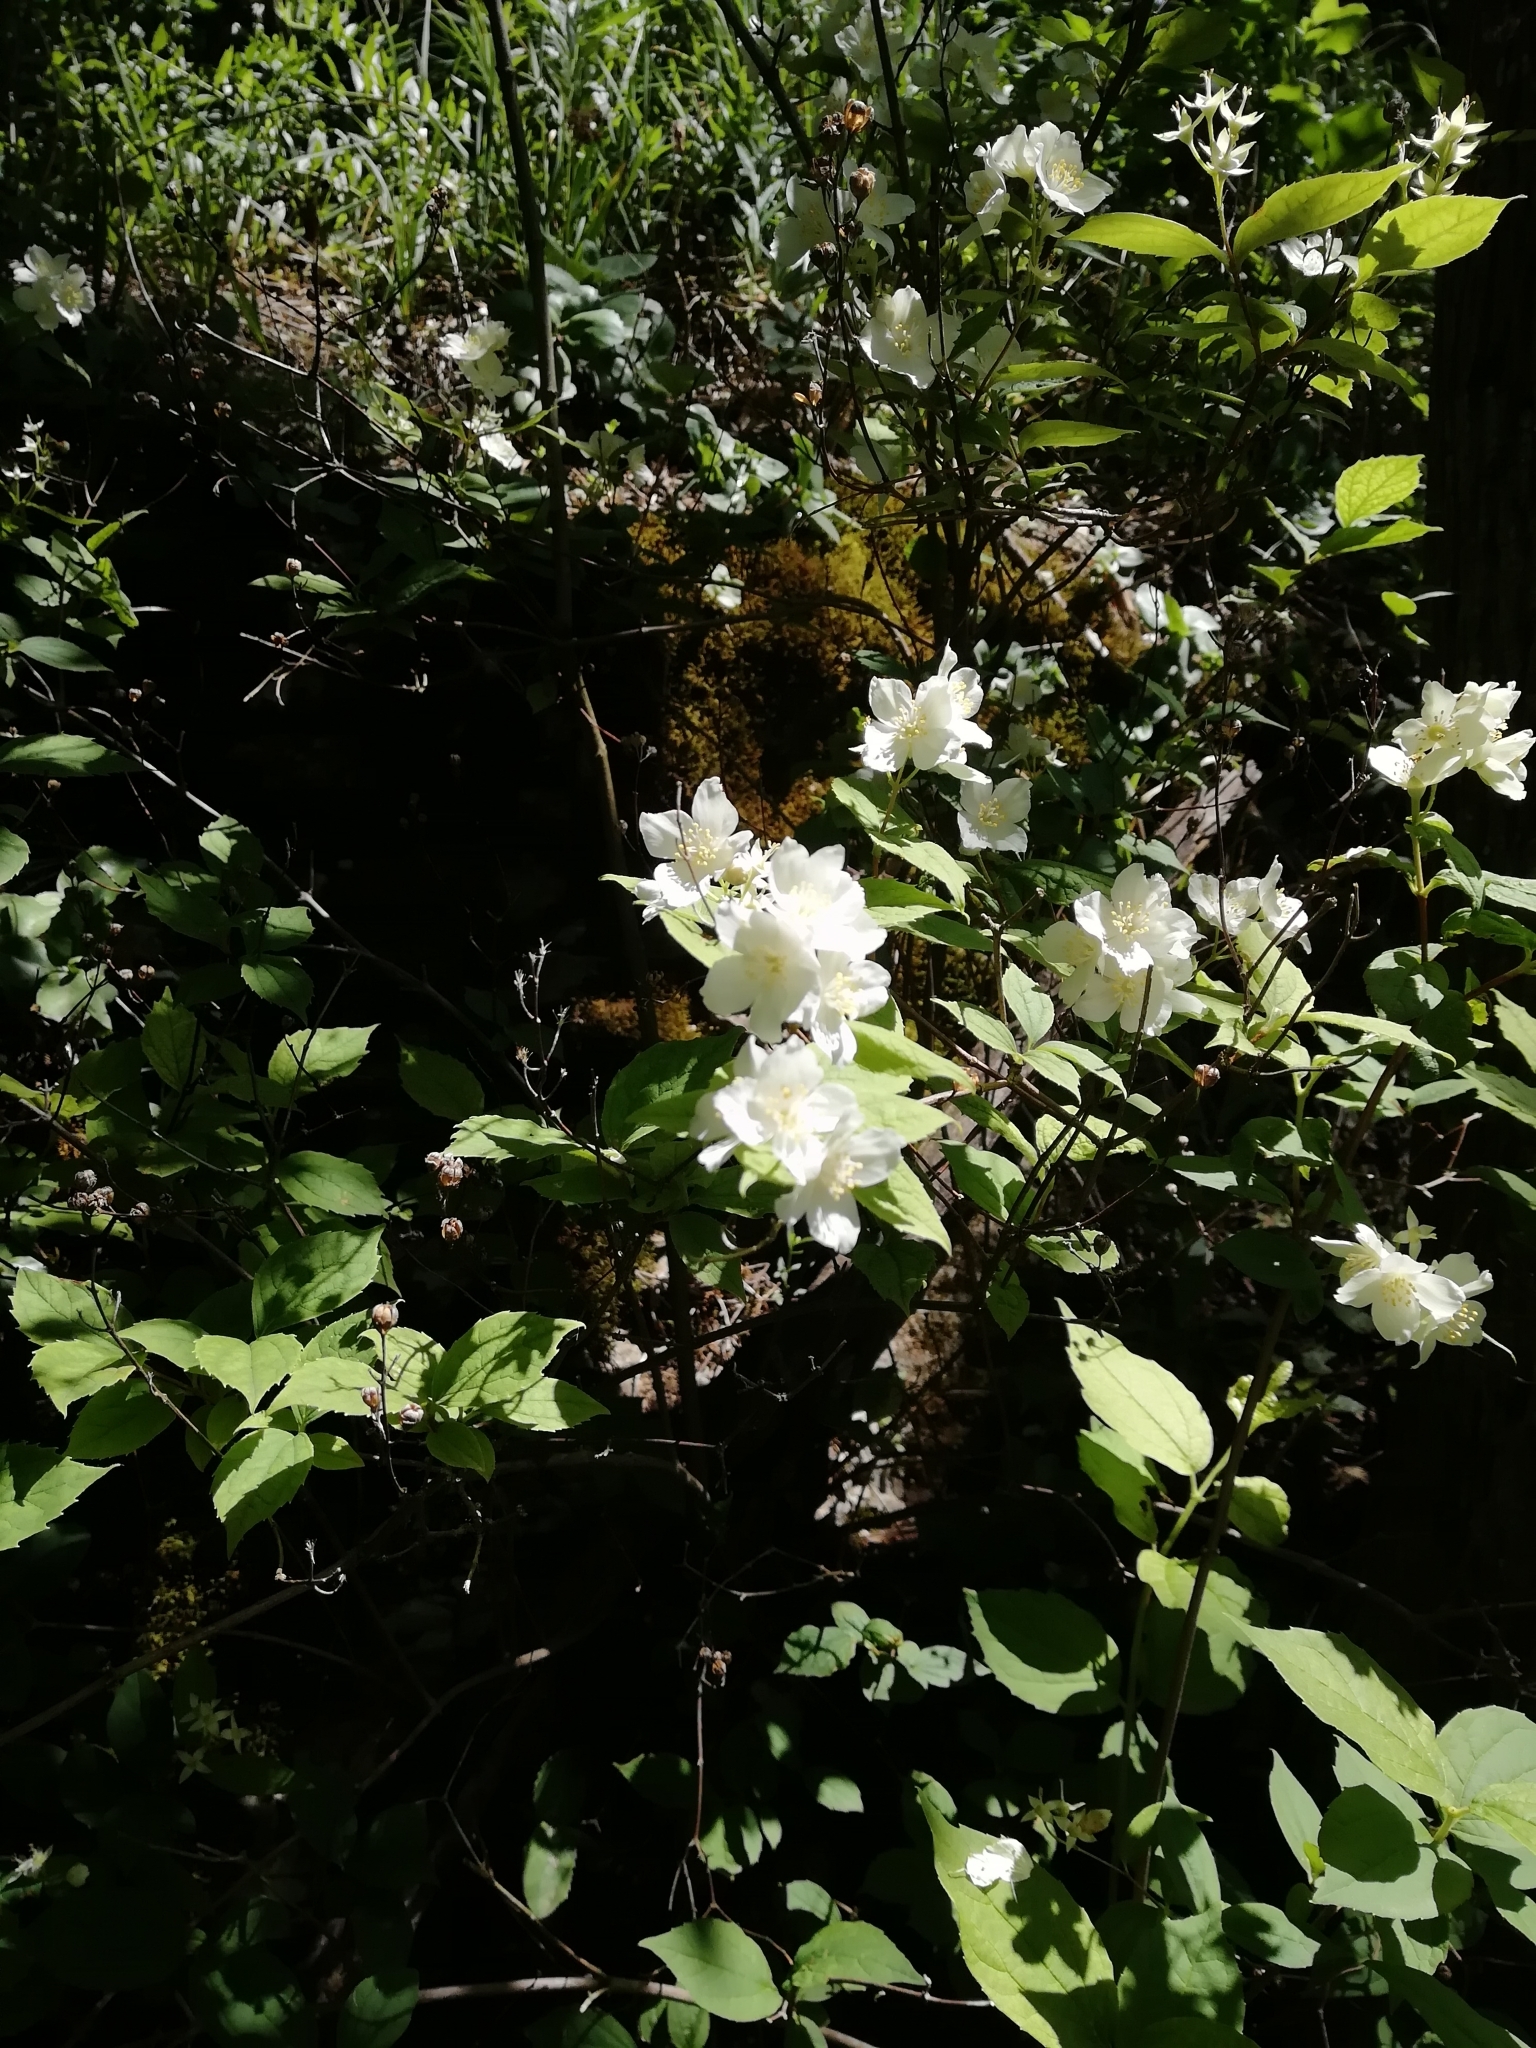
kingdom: Plantae
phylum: Tracheophyta
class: Magnoliopsida
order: Cornales
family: Hydrangeaceae
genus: Philadelphus
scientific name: Philadelphus coronarius
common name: Mock orange
